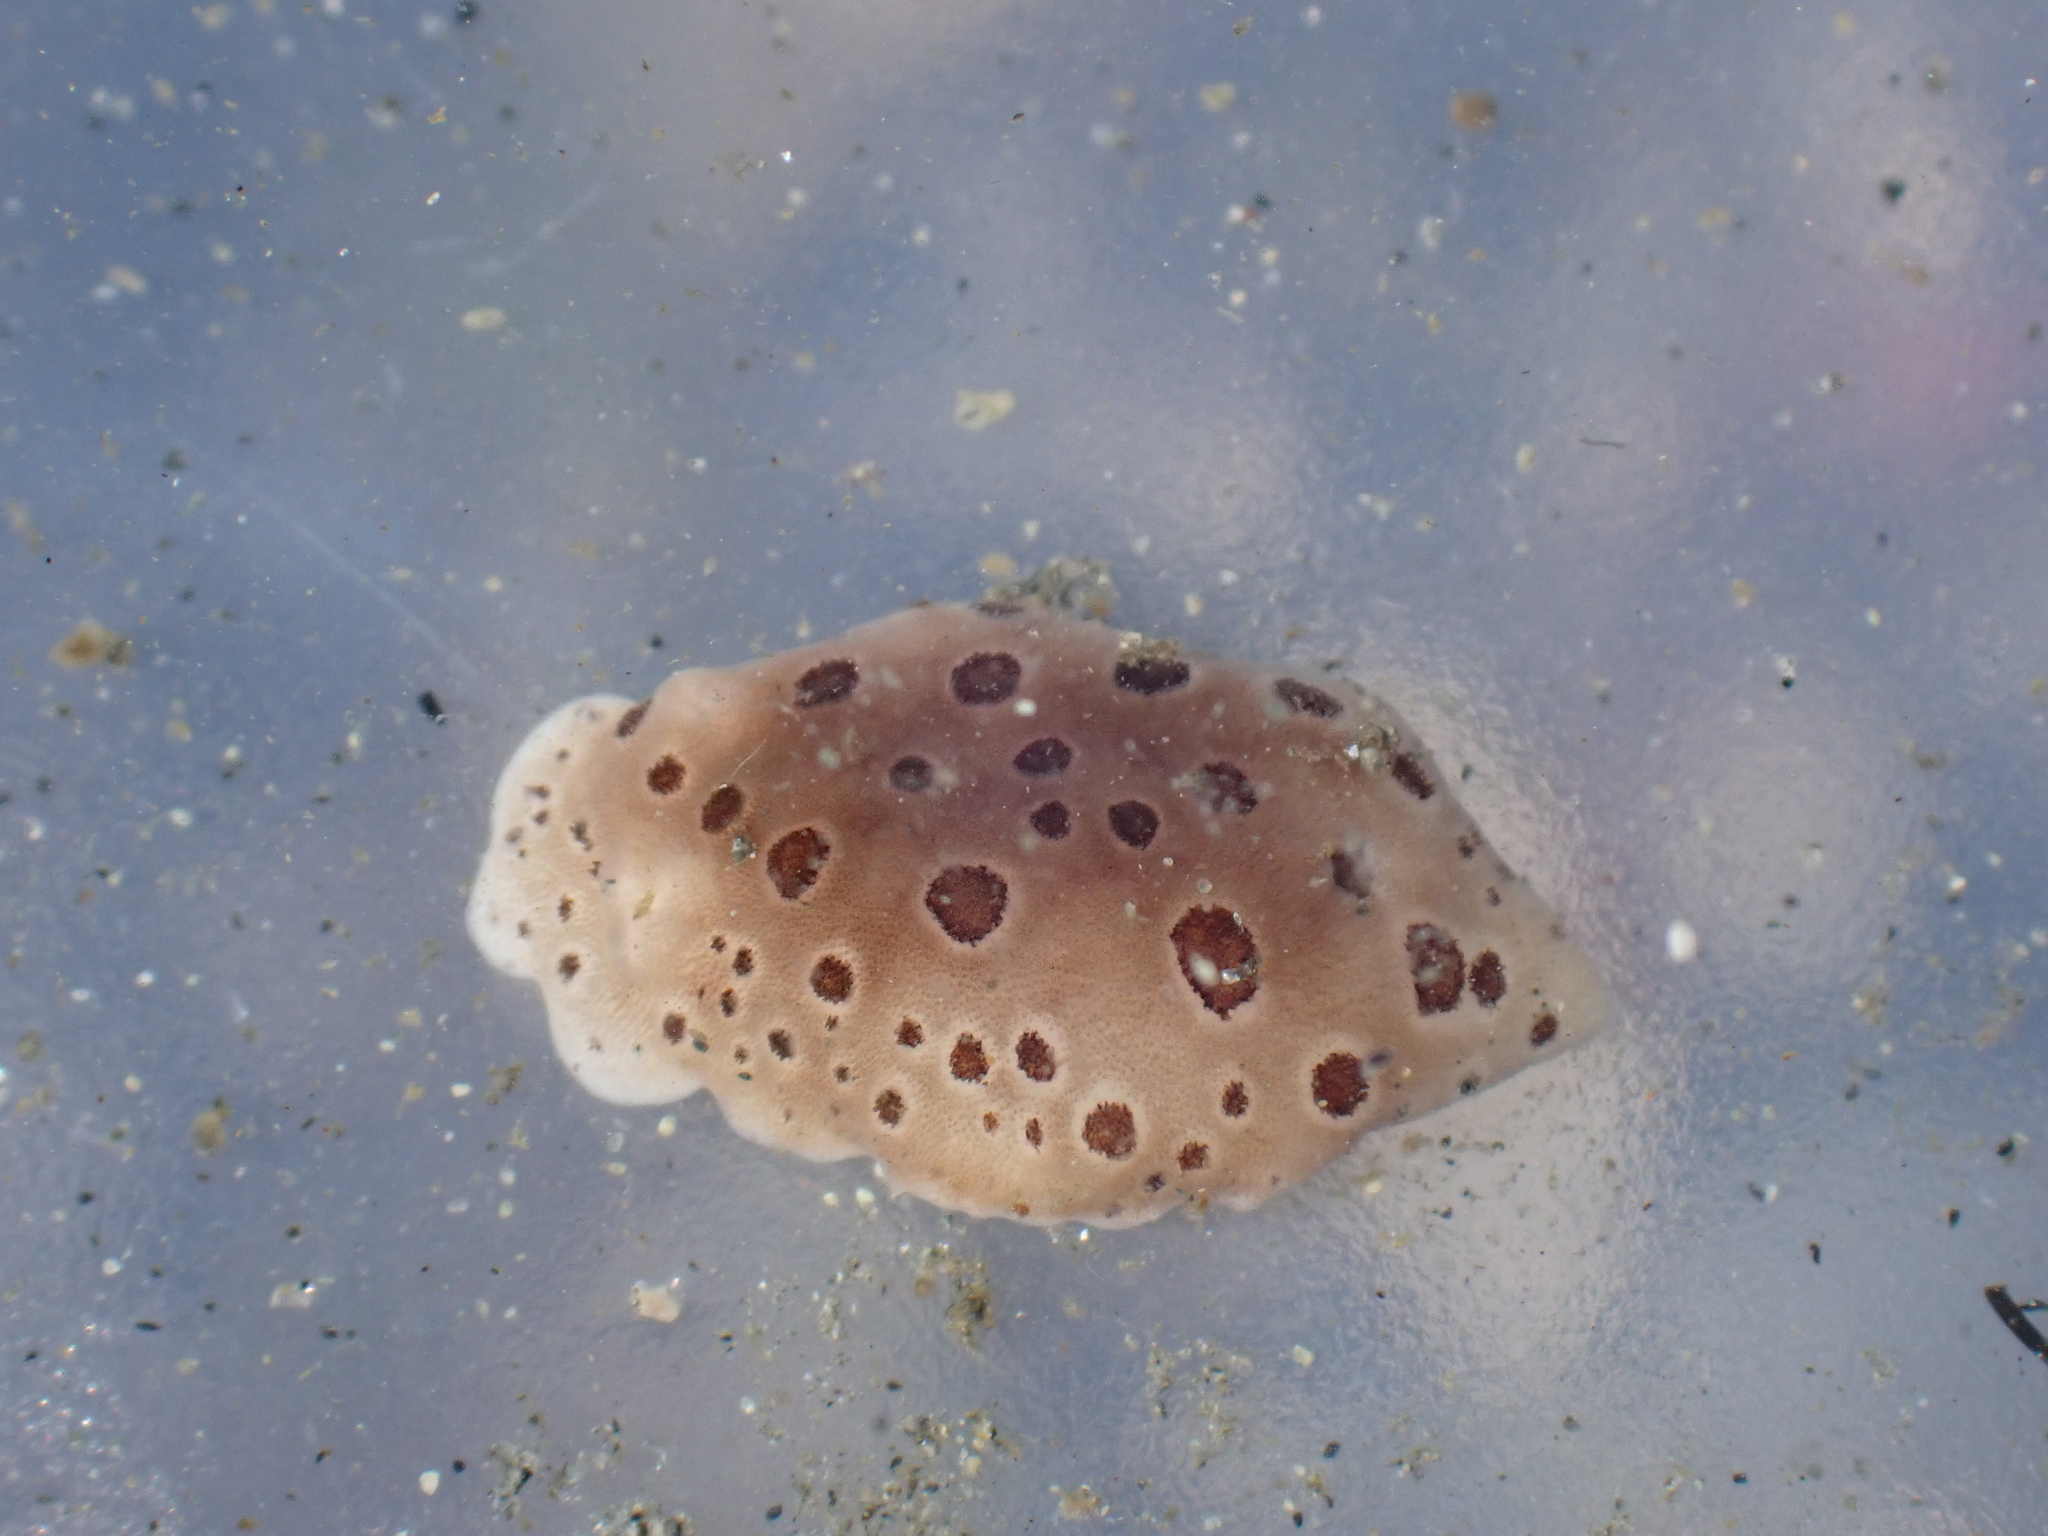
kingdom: Animalia
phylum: Mollusca
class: Gastropoda
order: Nudibranchia
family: Discodorididae
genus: Diaulula
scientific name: Diaulula odonoghuei
